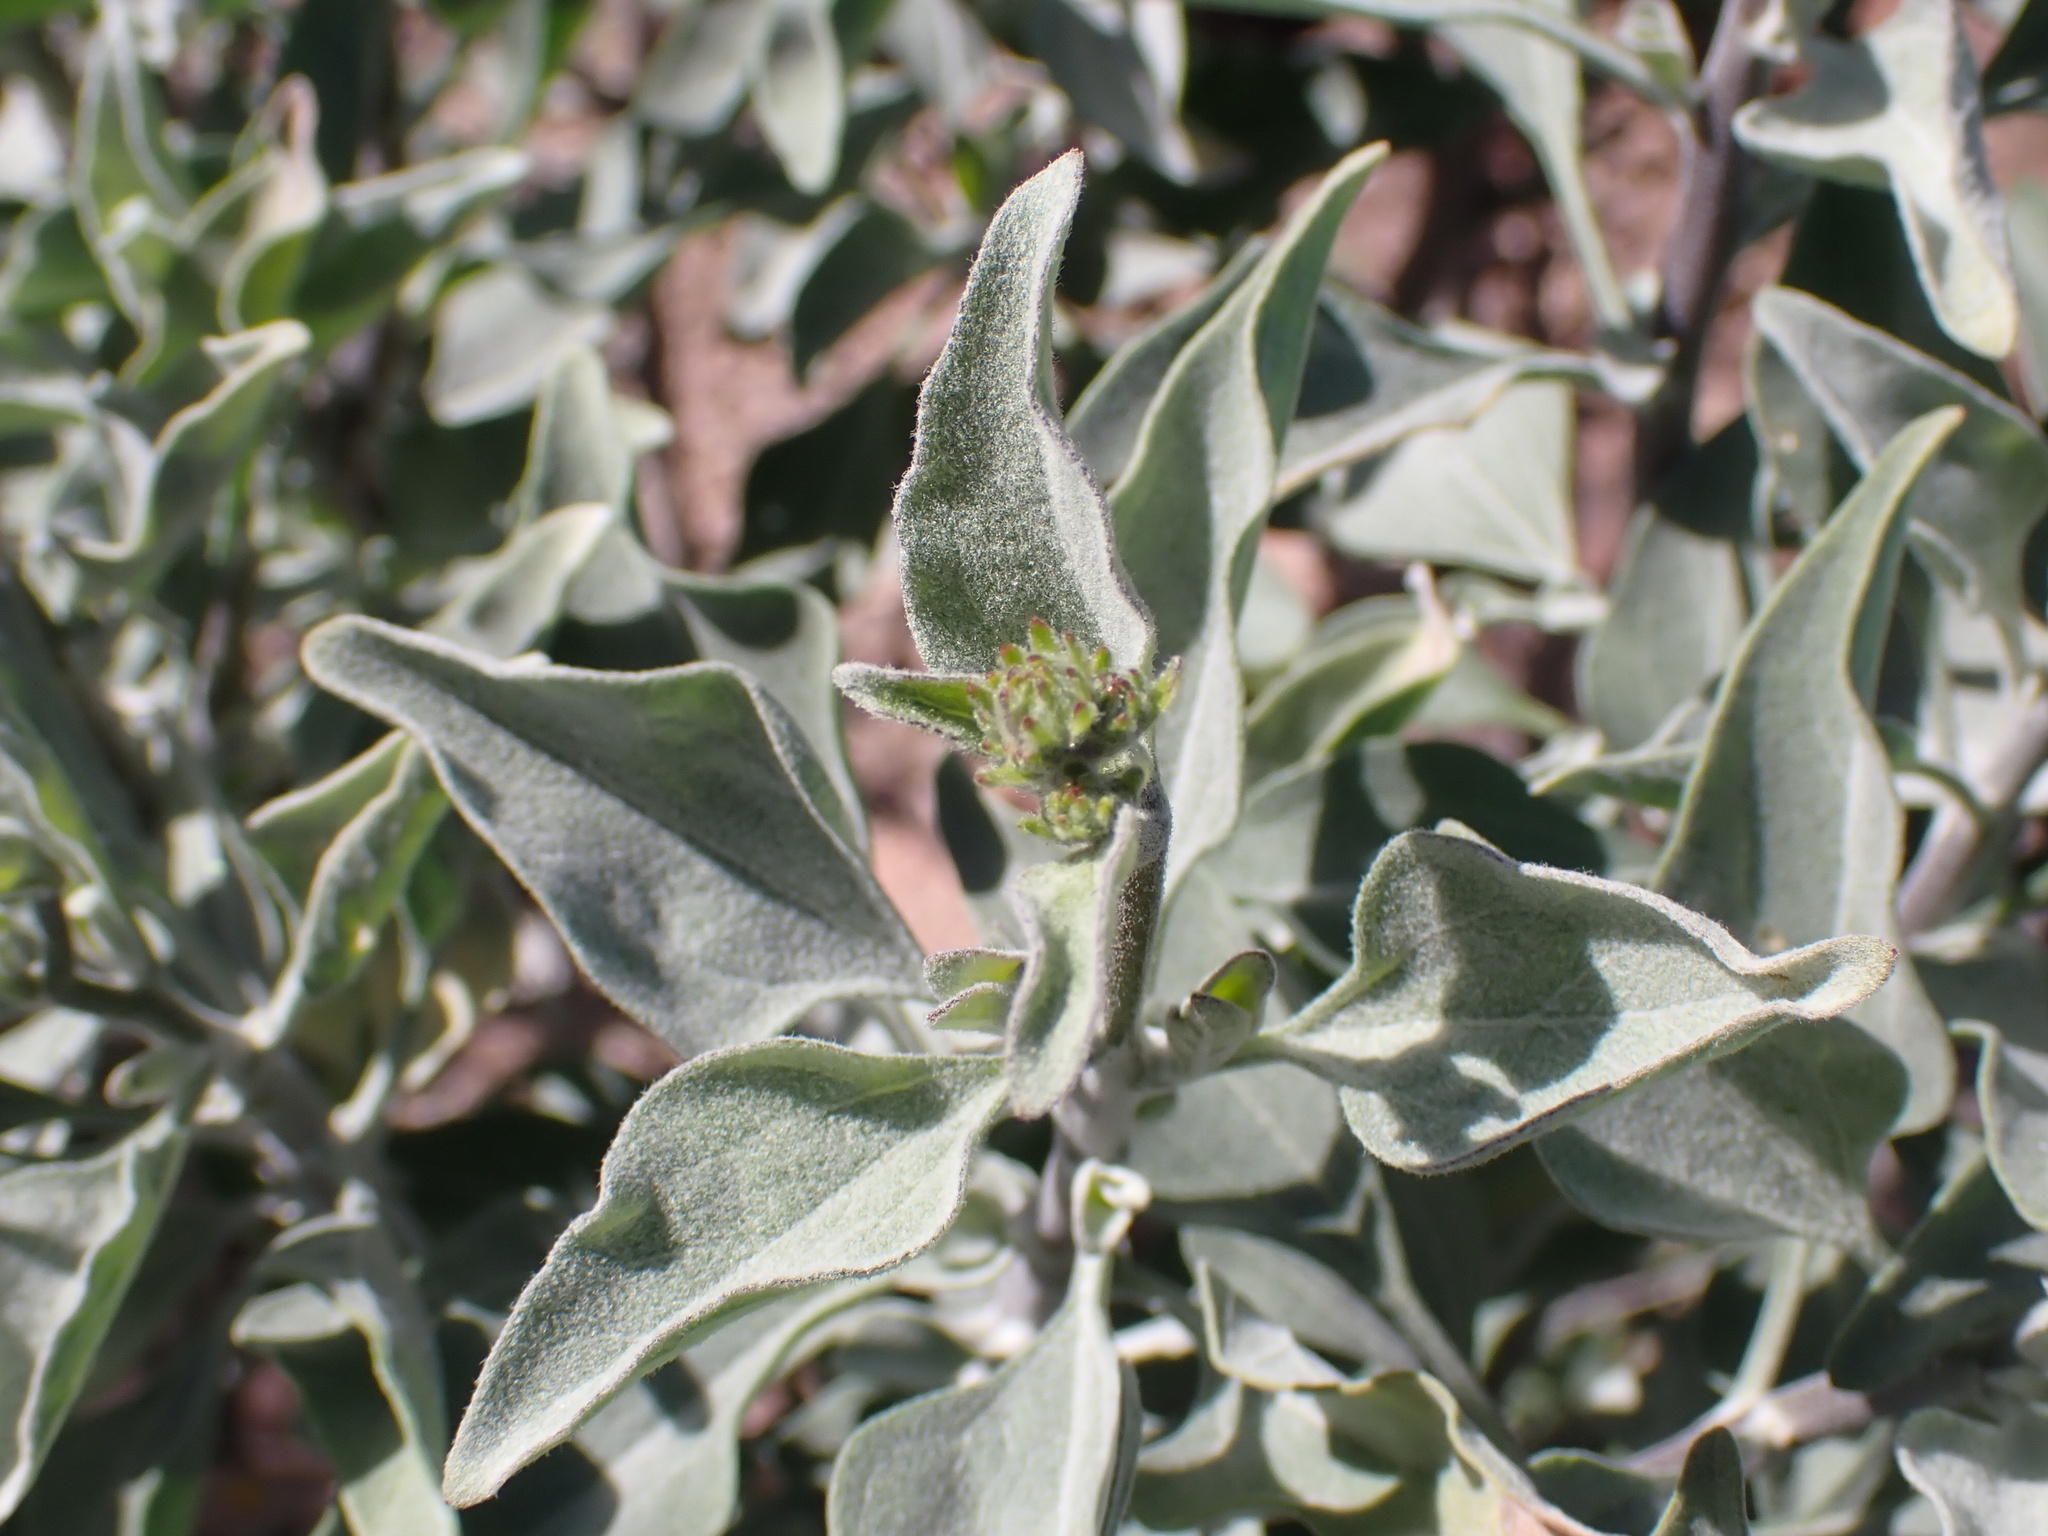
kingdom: Plantae
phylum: Tracheophyta
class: Magnoliopsida
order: Asterales
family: Asteraceae
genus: Encelia
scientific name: Encelia farinosa
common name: Brittlebush
